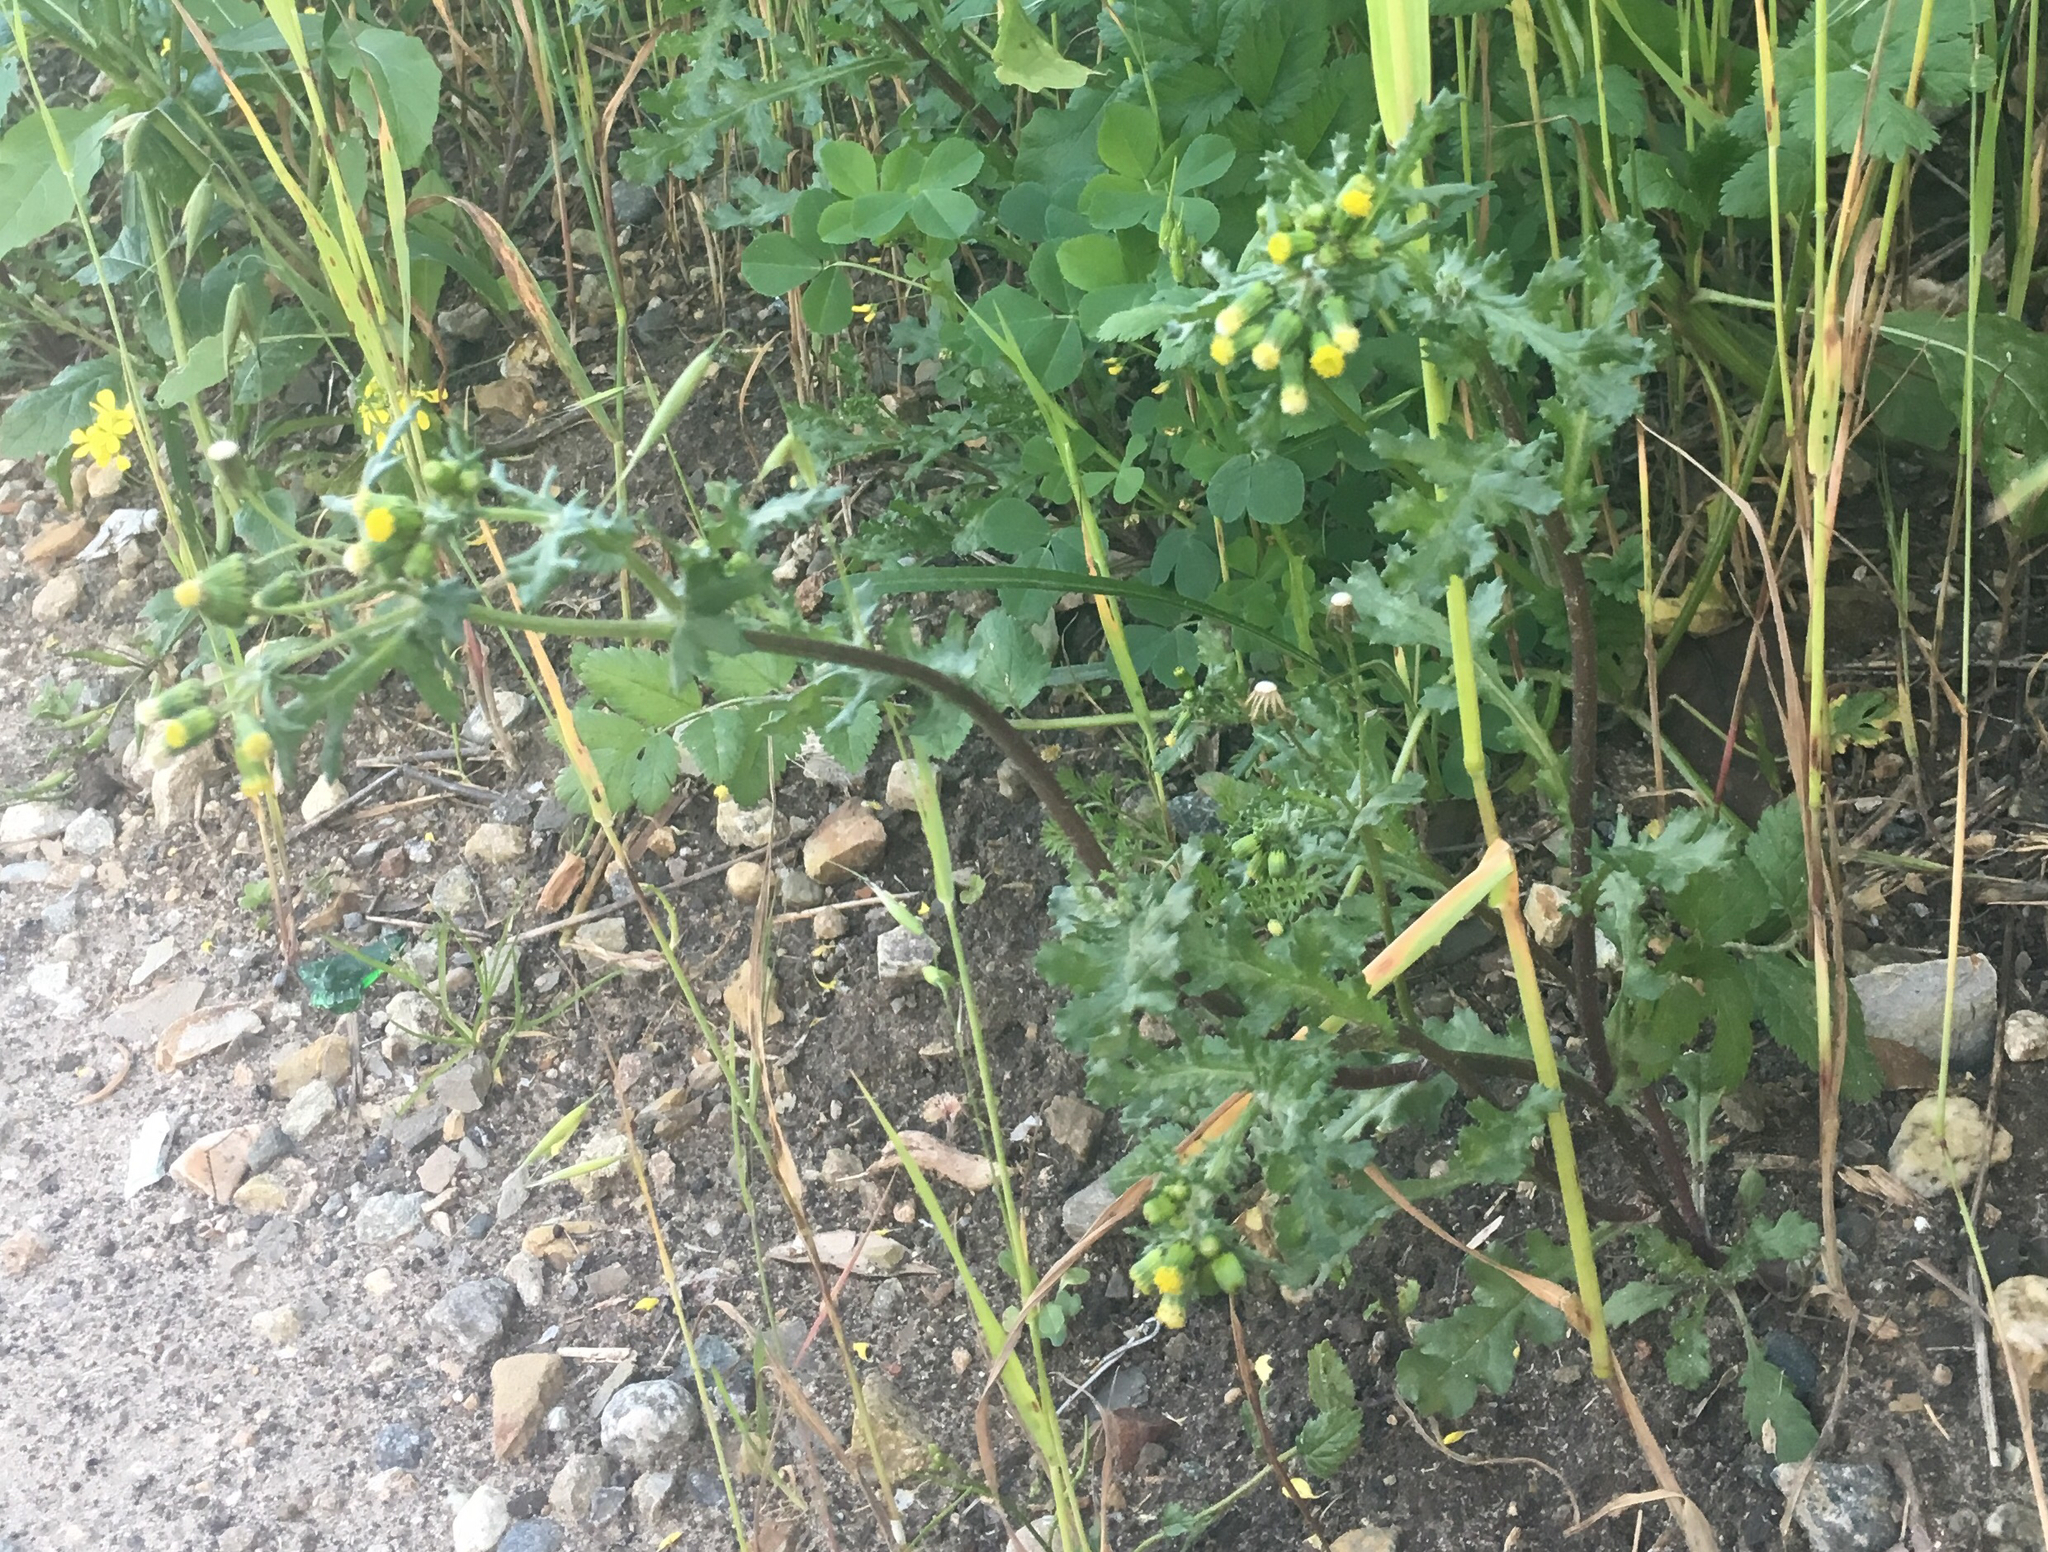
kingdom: Plantae
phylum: Tracheophyta
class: Magnoliopsida
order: Asterales
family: Asteraceae
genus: Senecio
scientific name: Senecio vulgaris
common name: Old-man-in-the-spring
